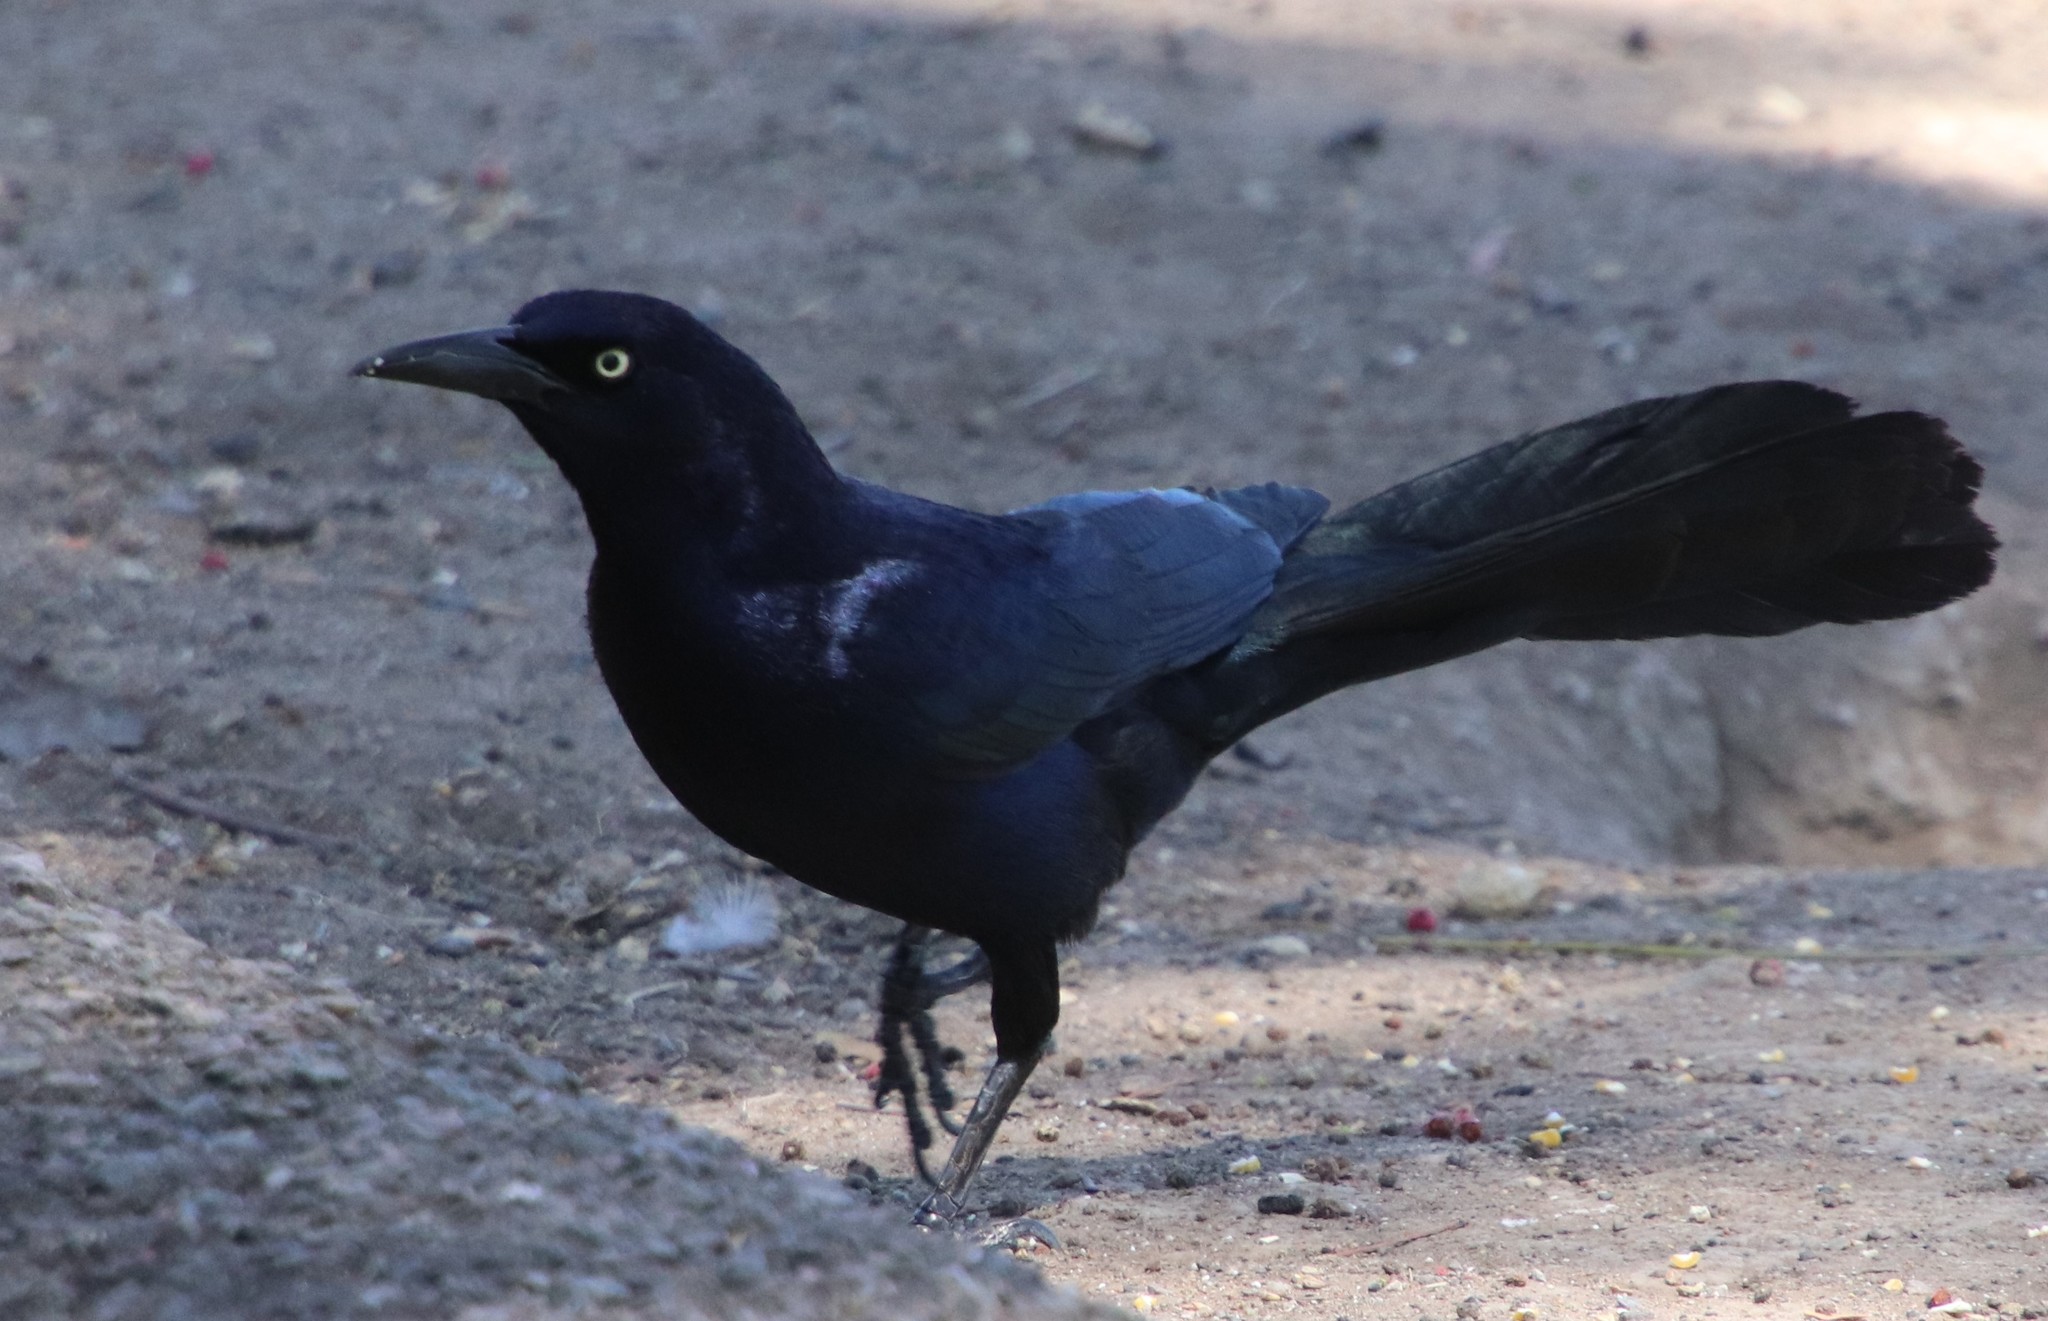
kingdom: Animalia
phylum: Chordata
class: Aves
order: Passeriformes
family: Icteridae
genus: Quiscalus
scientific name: Quiscalus mexicanus
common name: Great-tailed grackle
